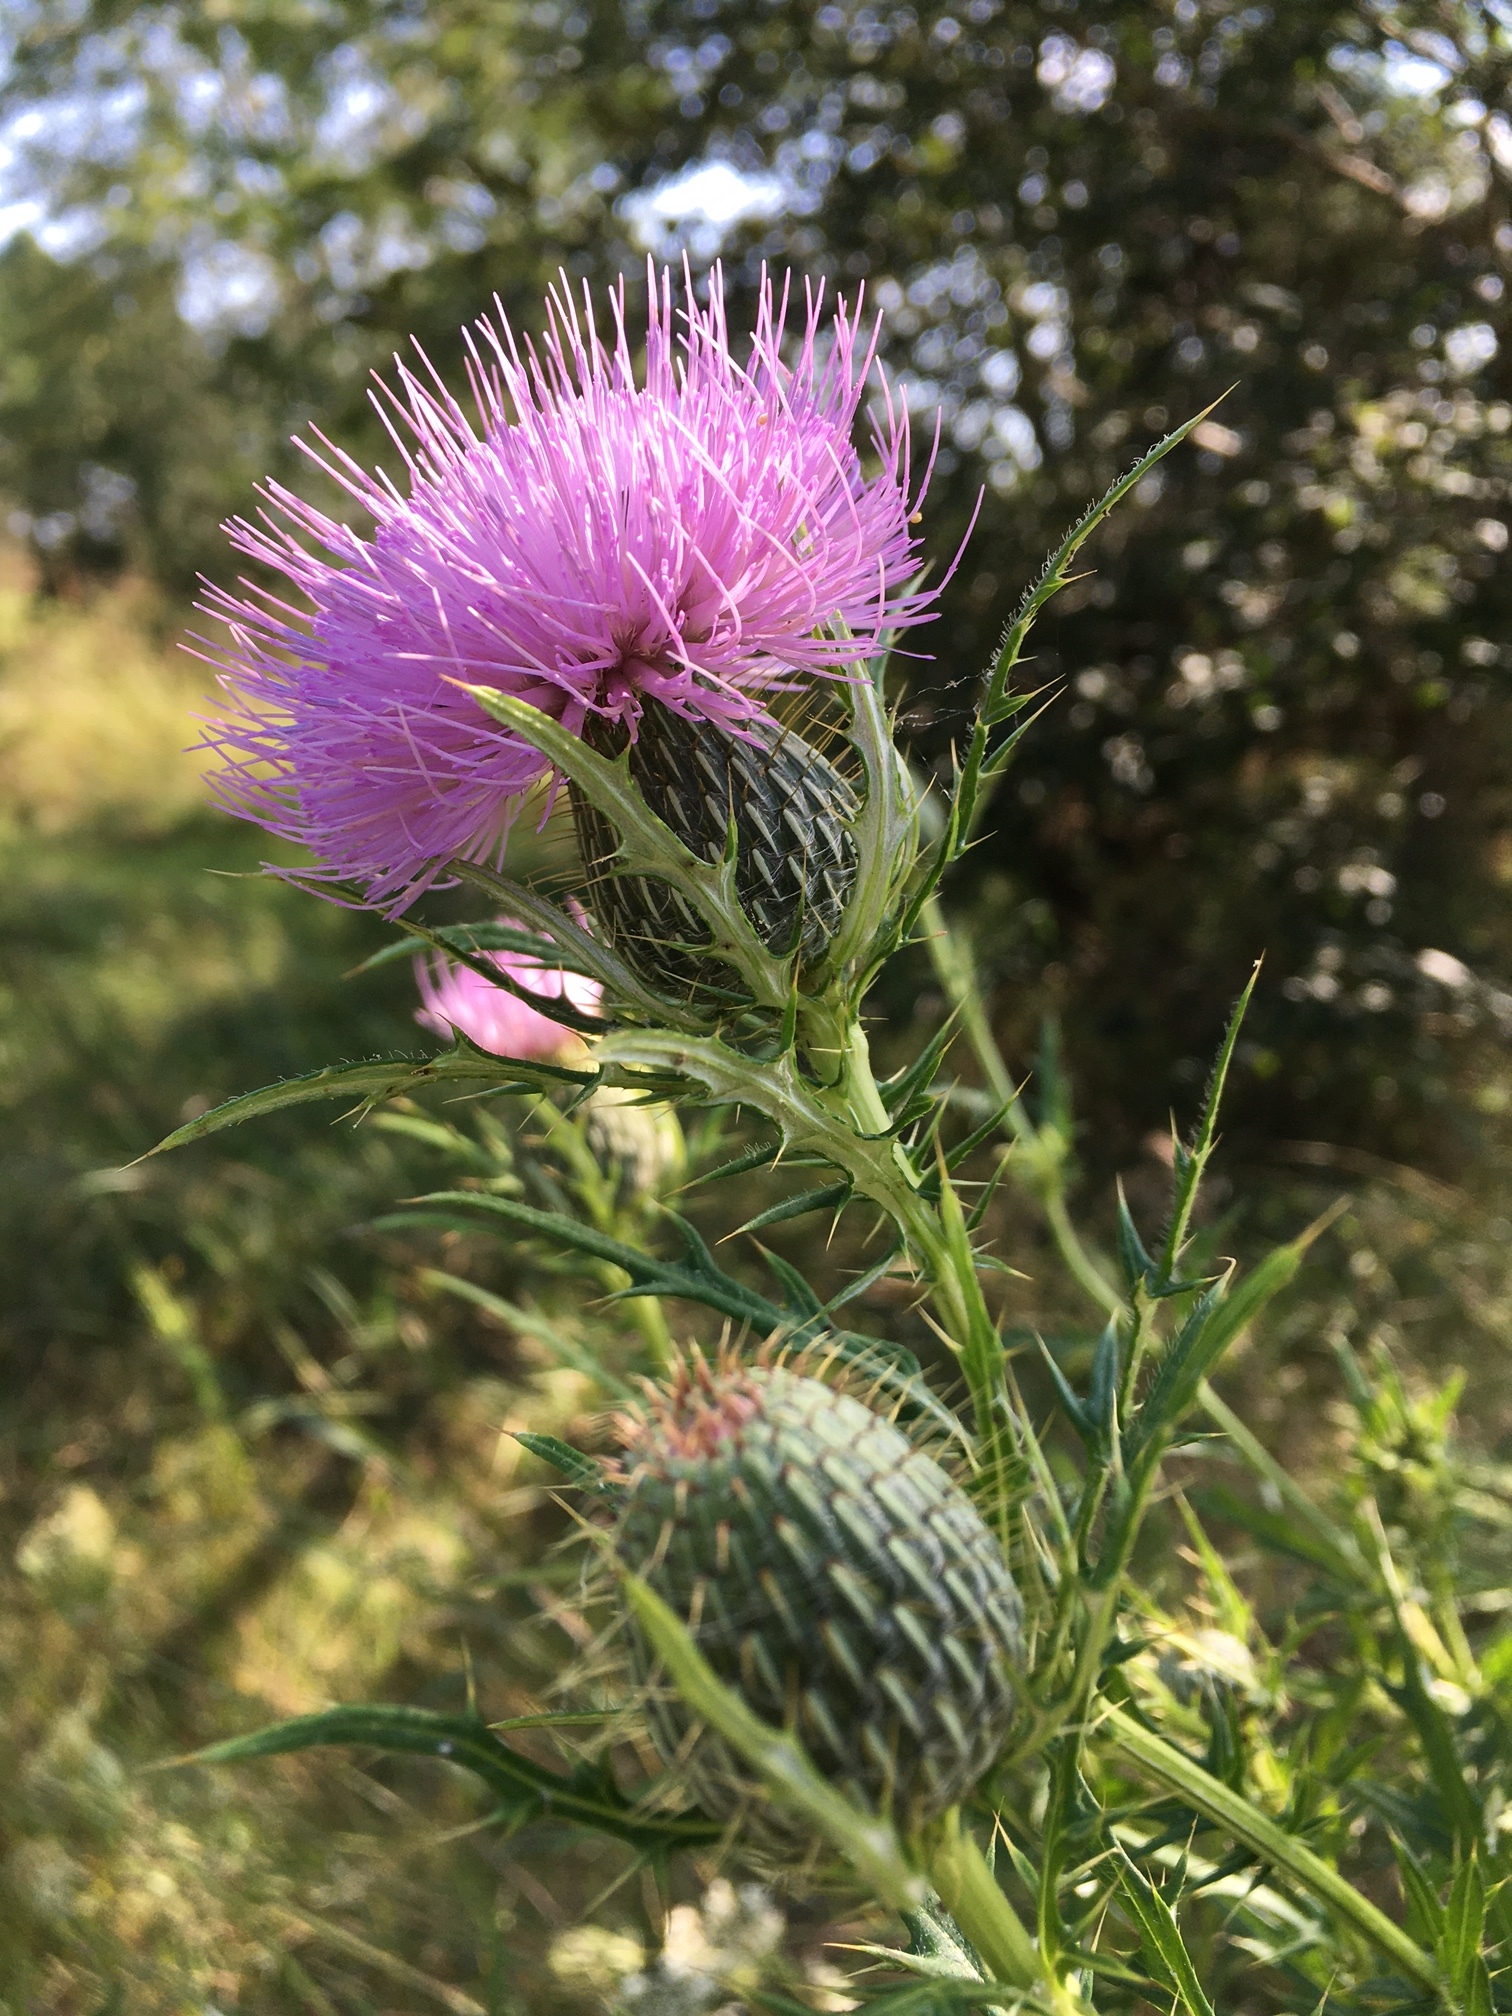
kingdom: Plantae
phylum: Tracheophyta
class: Magnoliopsida
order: Asterales
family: Asteraceae
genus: Cirsium
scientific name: Cirsium discolor
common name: Field thistle
